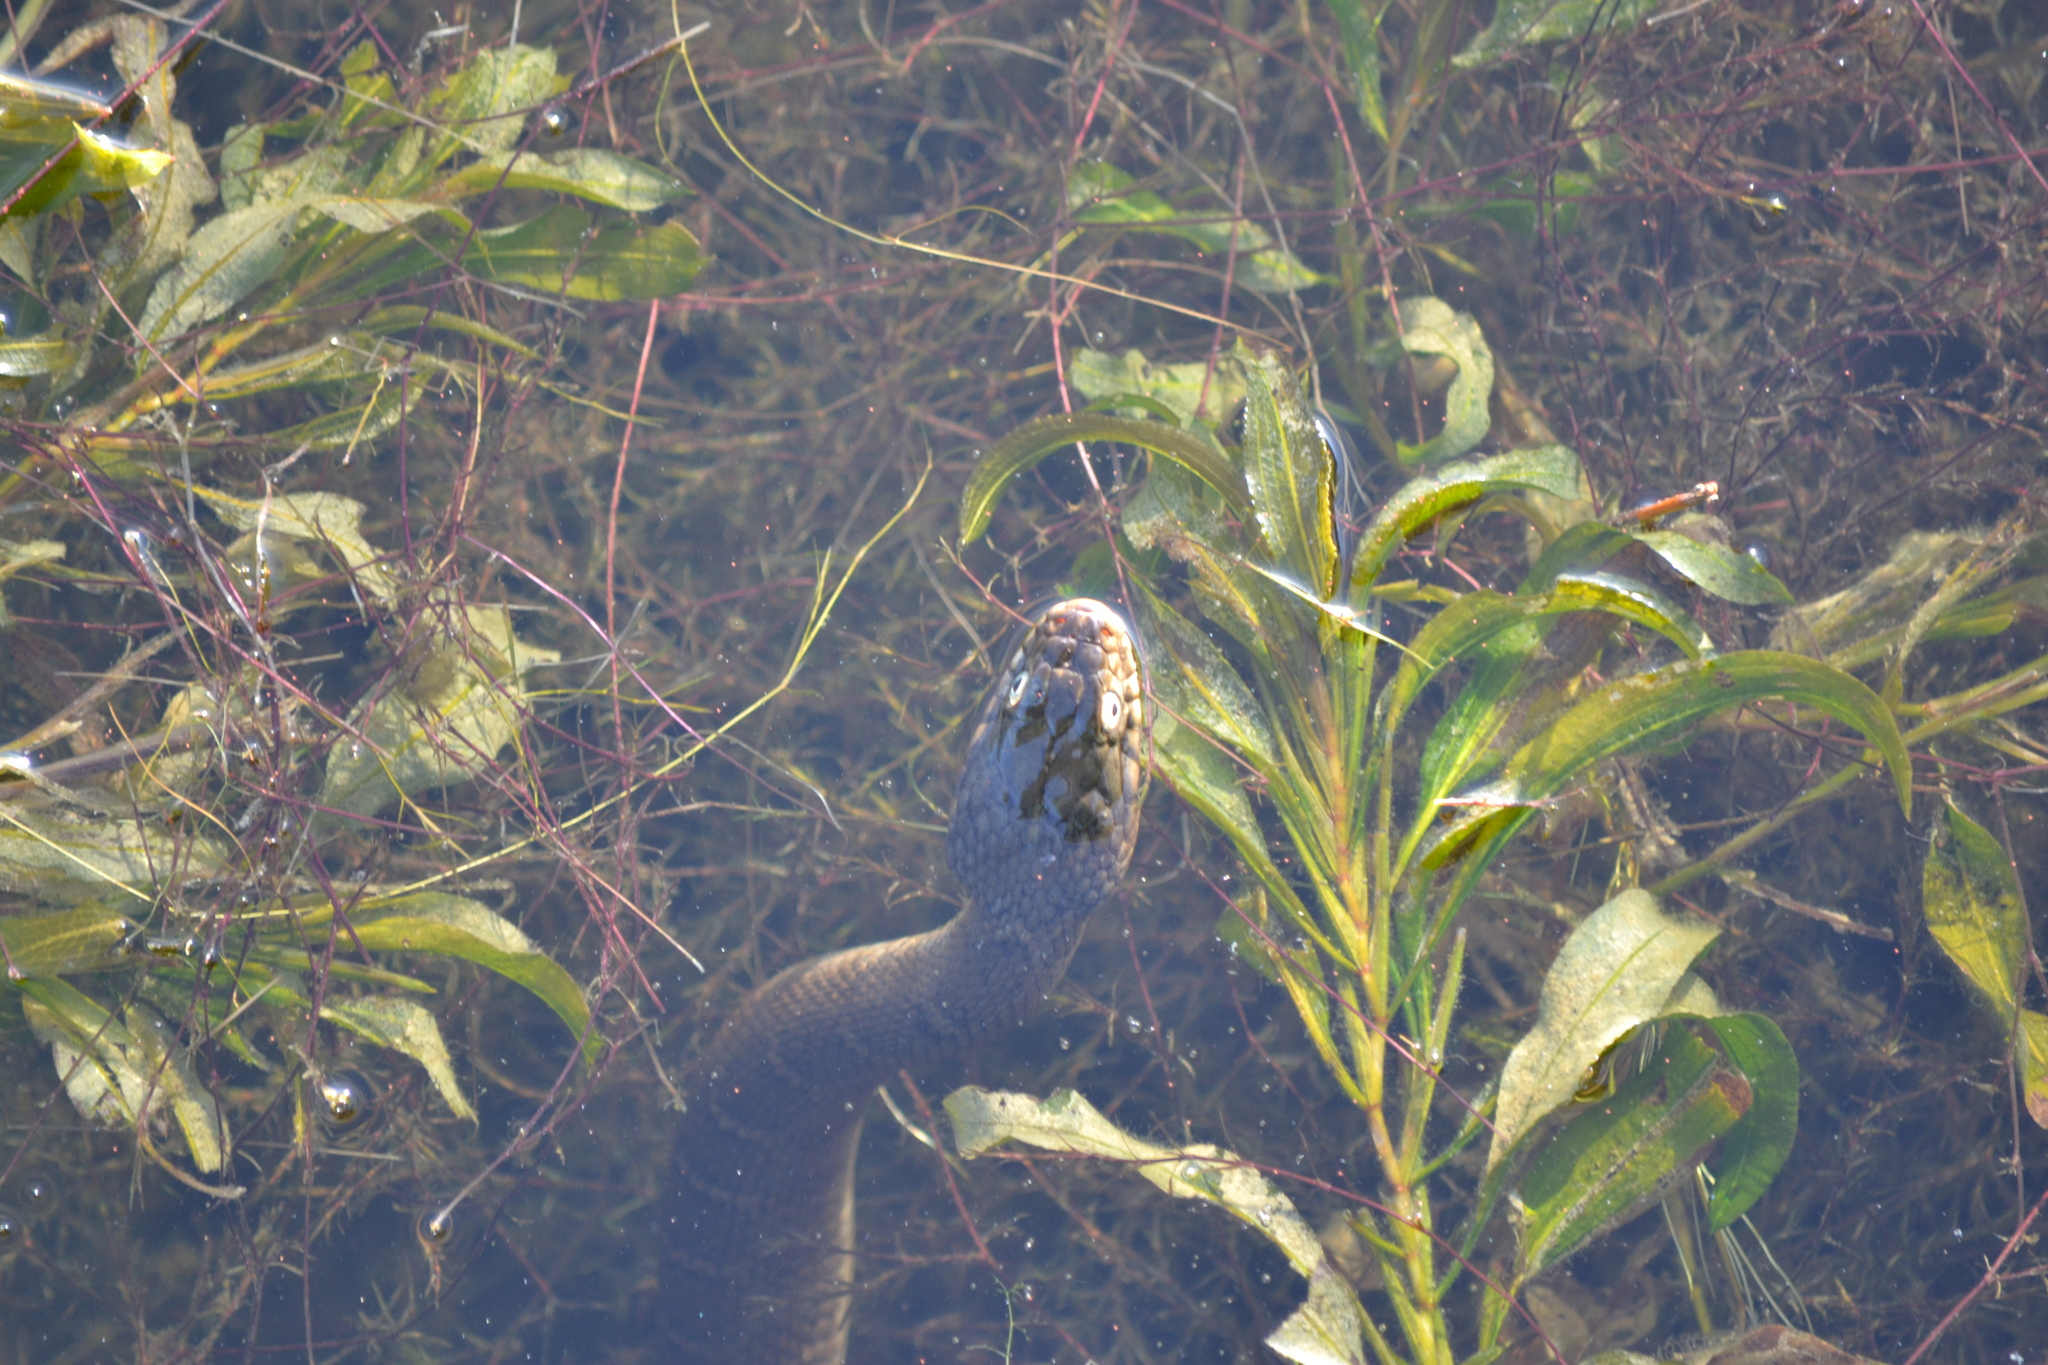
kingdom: Animalia
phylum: Chordata
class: Squamata
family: Colubridae
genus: Nerodia
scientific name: Nerodia erythrogaster
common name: Plainbelly water snake
